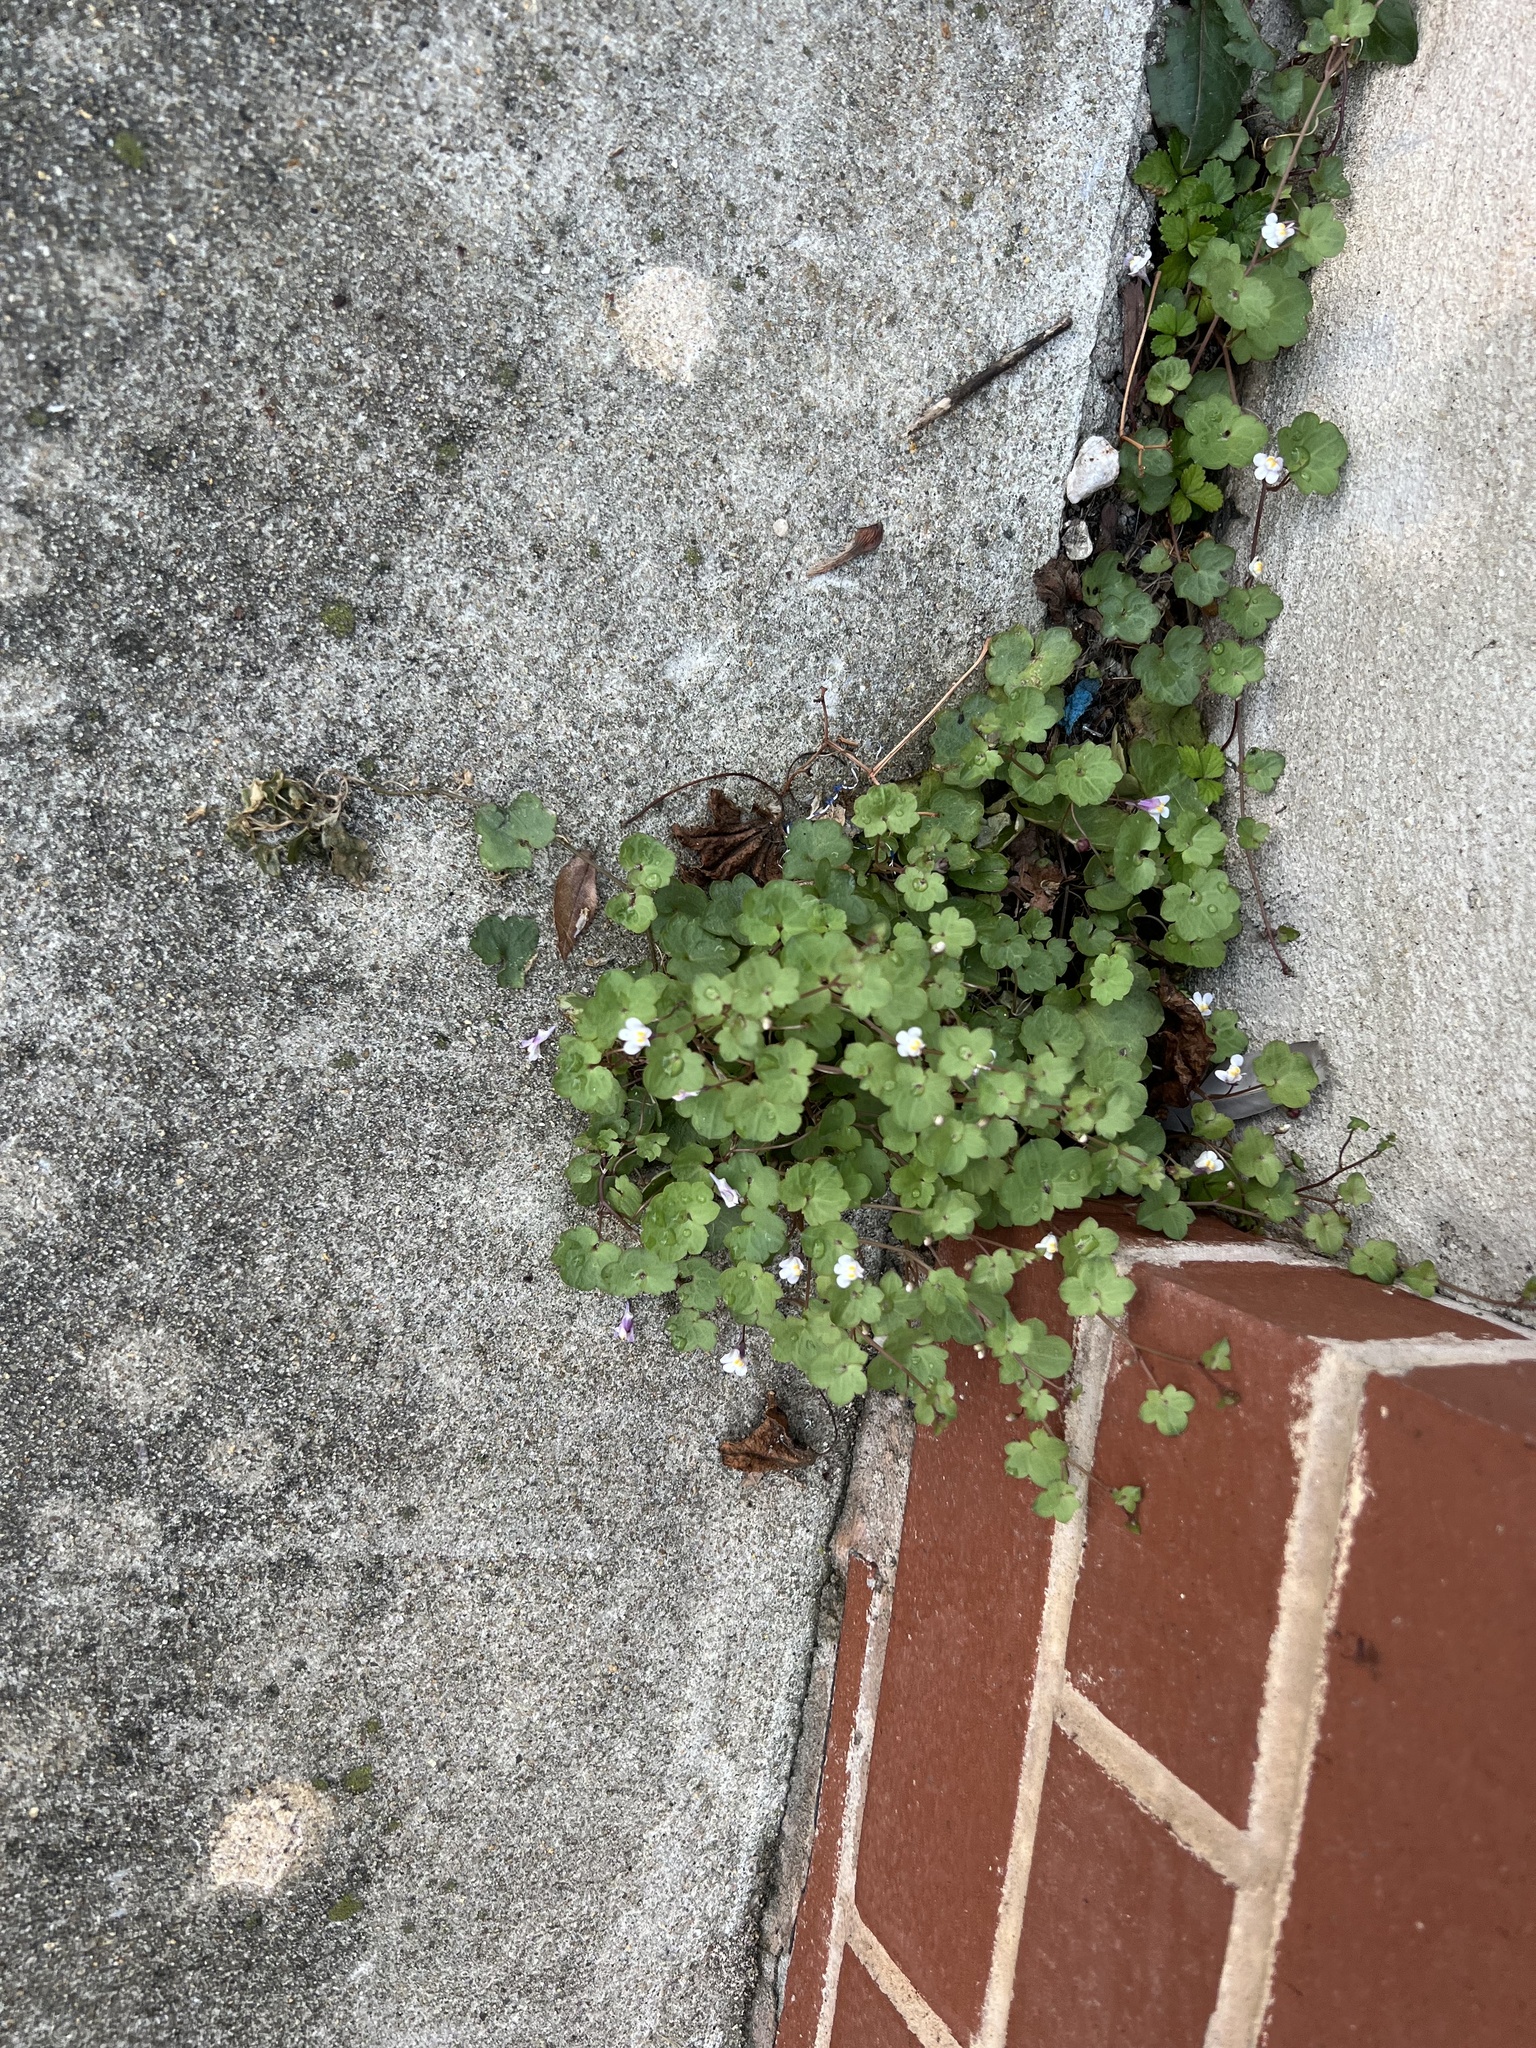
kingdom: Plantae
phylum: Tracheophyta
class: Magnoliopsida
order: Lamiales
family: Plantaginaceae
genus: Cymbalaria
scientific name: Cymbalaria muralis
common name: Ivy-leaved toadflax
